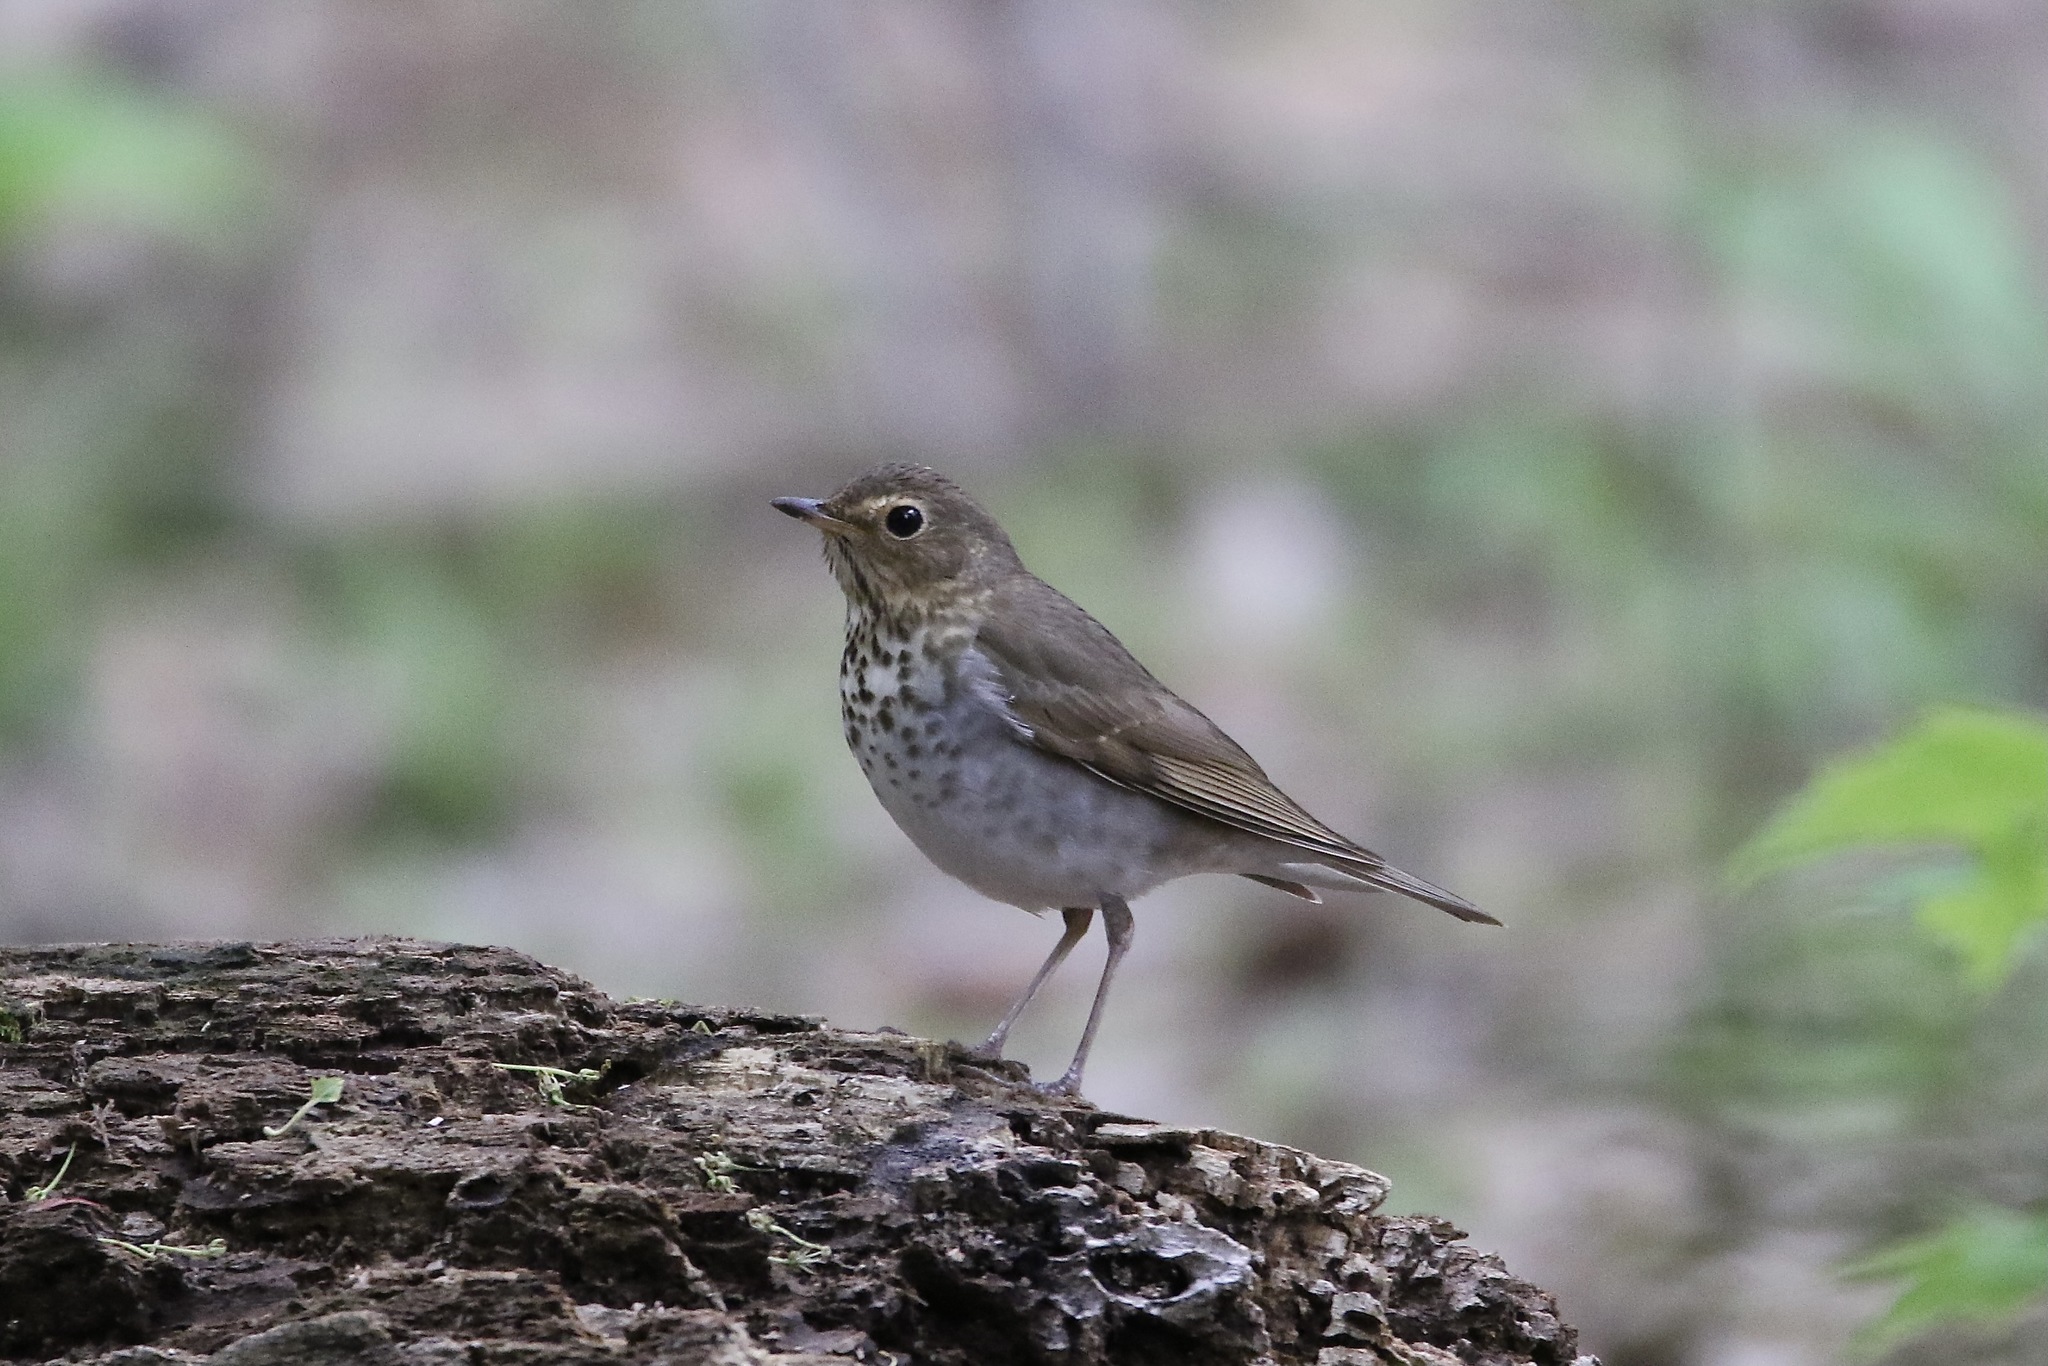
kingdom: Animalia
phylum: Chordata
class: Aves
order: Passeriformes
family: Turdidae
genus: Catharus
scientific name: Catharus ustulatus
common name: Swainson's thrush
